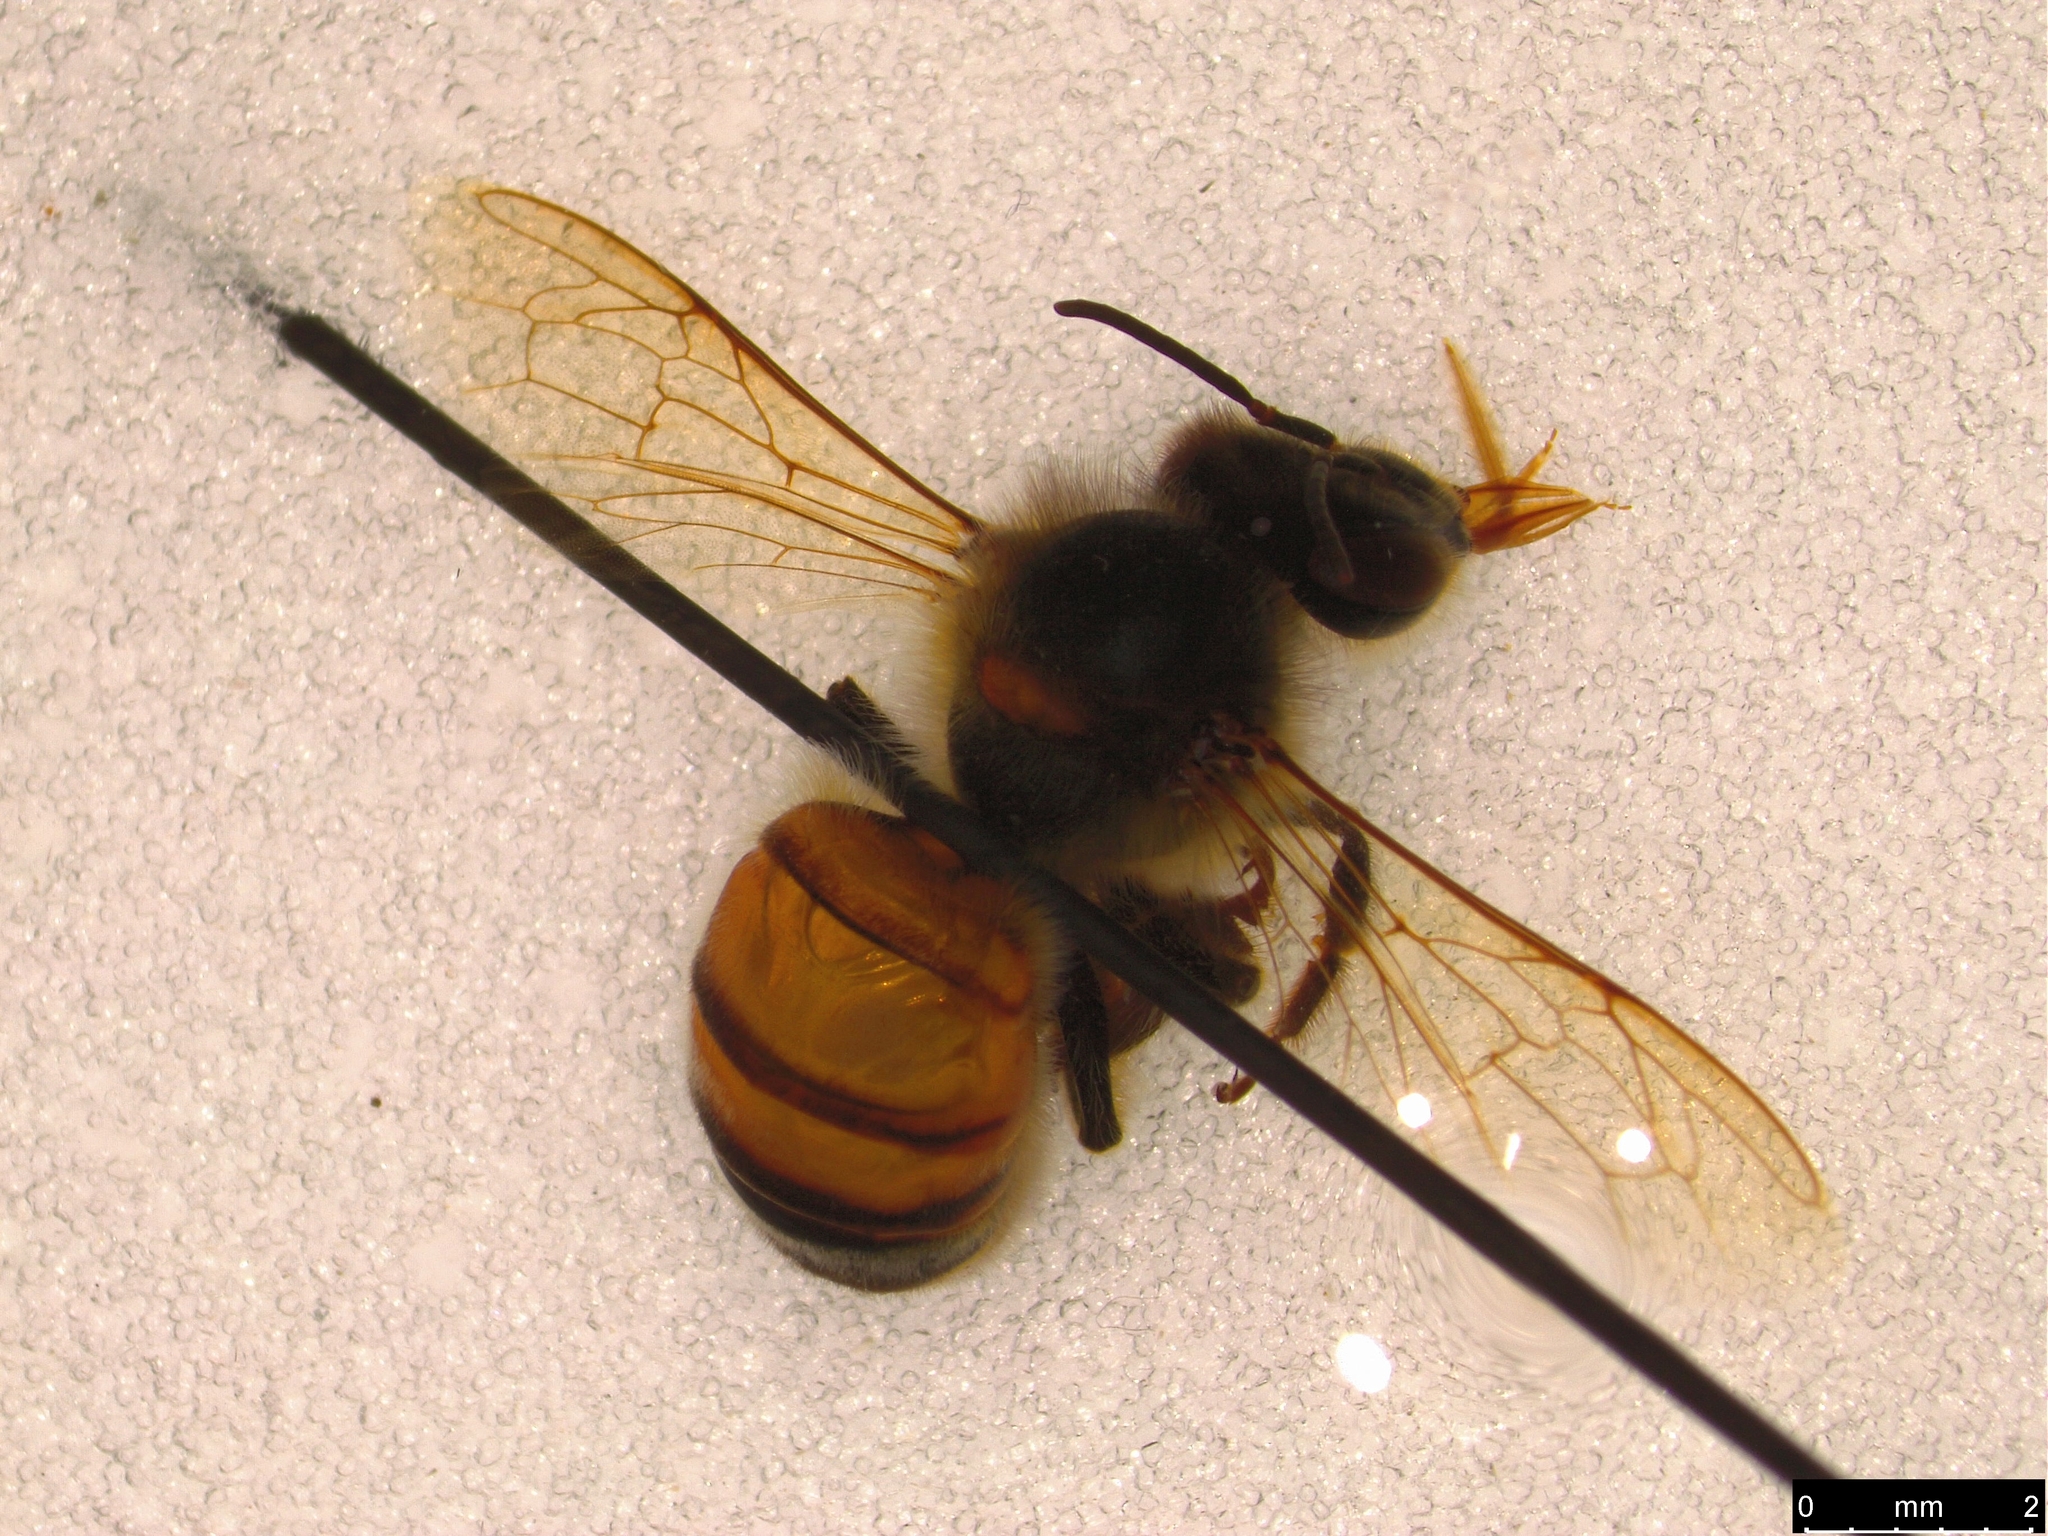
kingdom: Animalia
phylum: Arthropoda
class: Insecta
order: Hymenoptera
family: Apidae
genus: Apis
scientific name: Apis mellifera
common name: Honey bee
